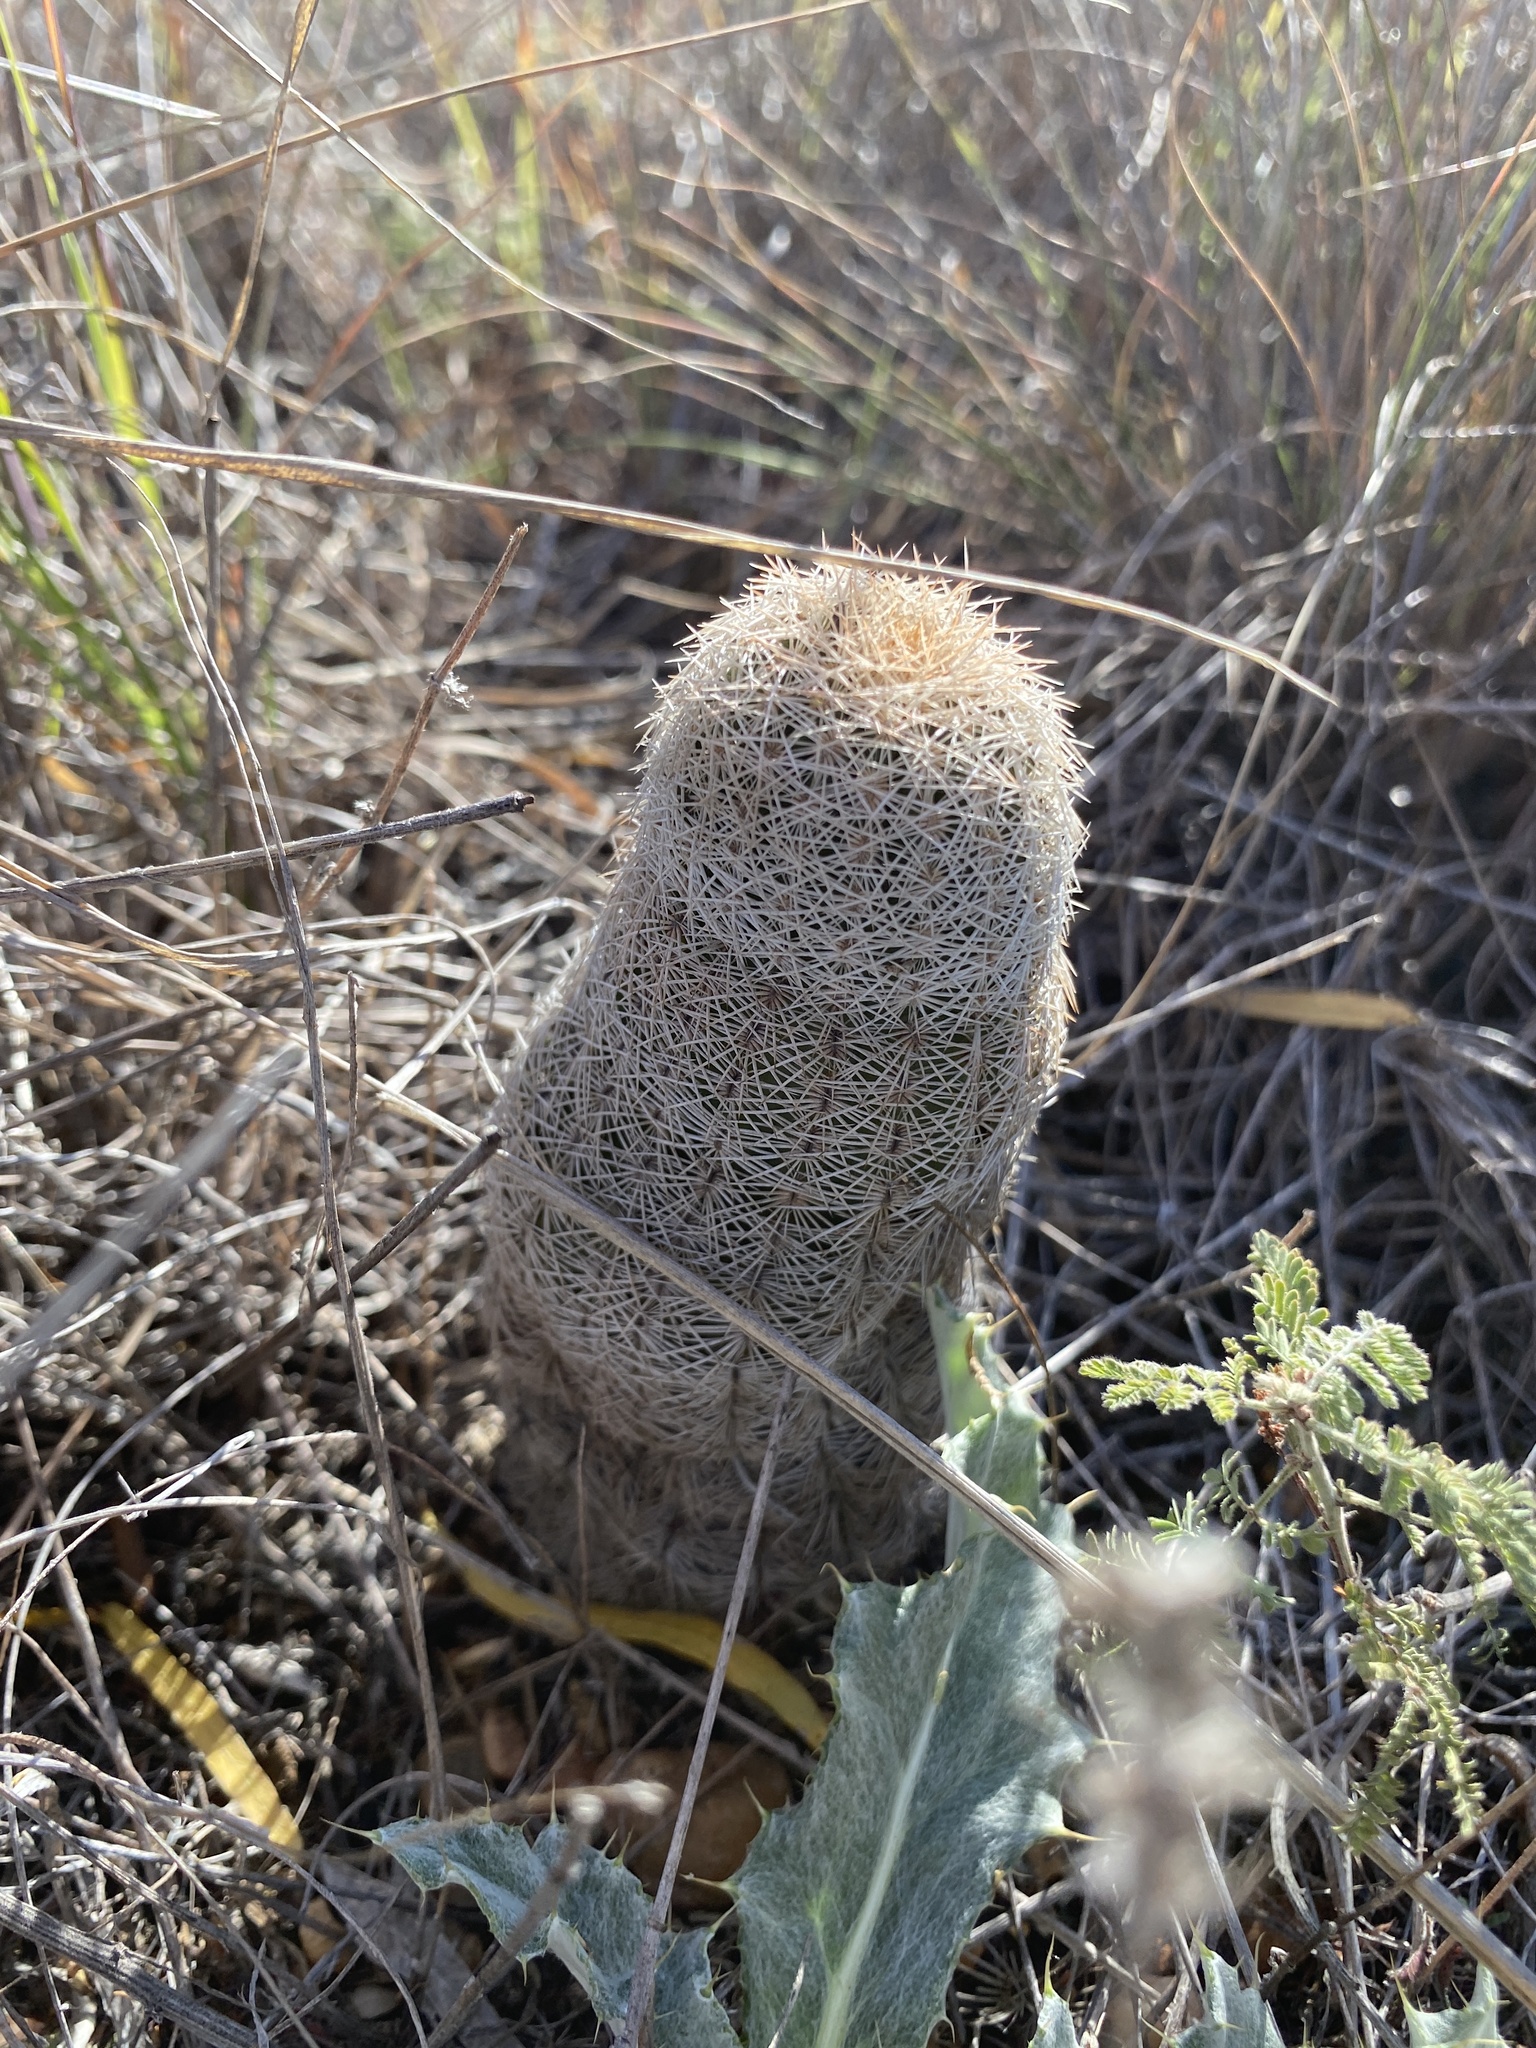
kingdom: Plantae
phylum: Tracheophyta
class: Magnoliopsida
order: Caryophyllales
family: Cactaceae
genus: Echinocereus
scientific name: Echinocereus reichenbachii
